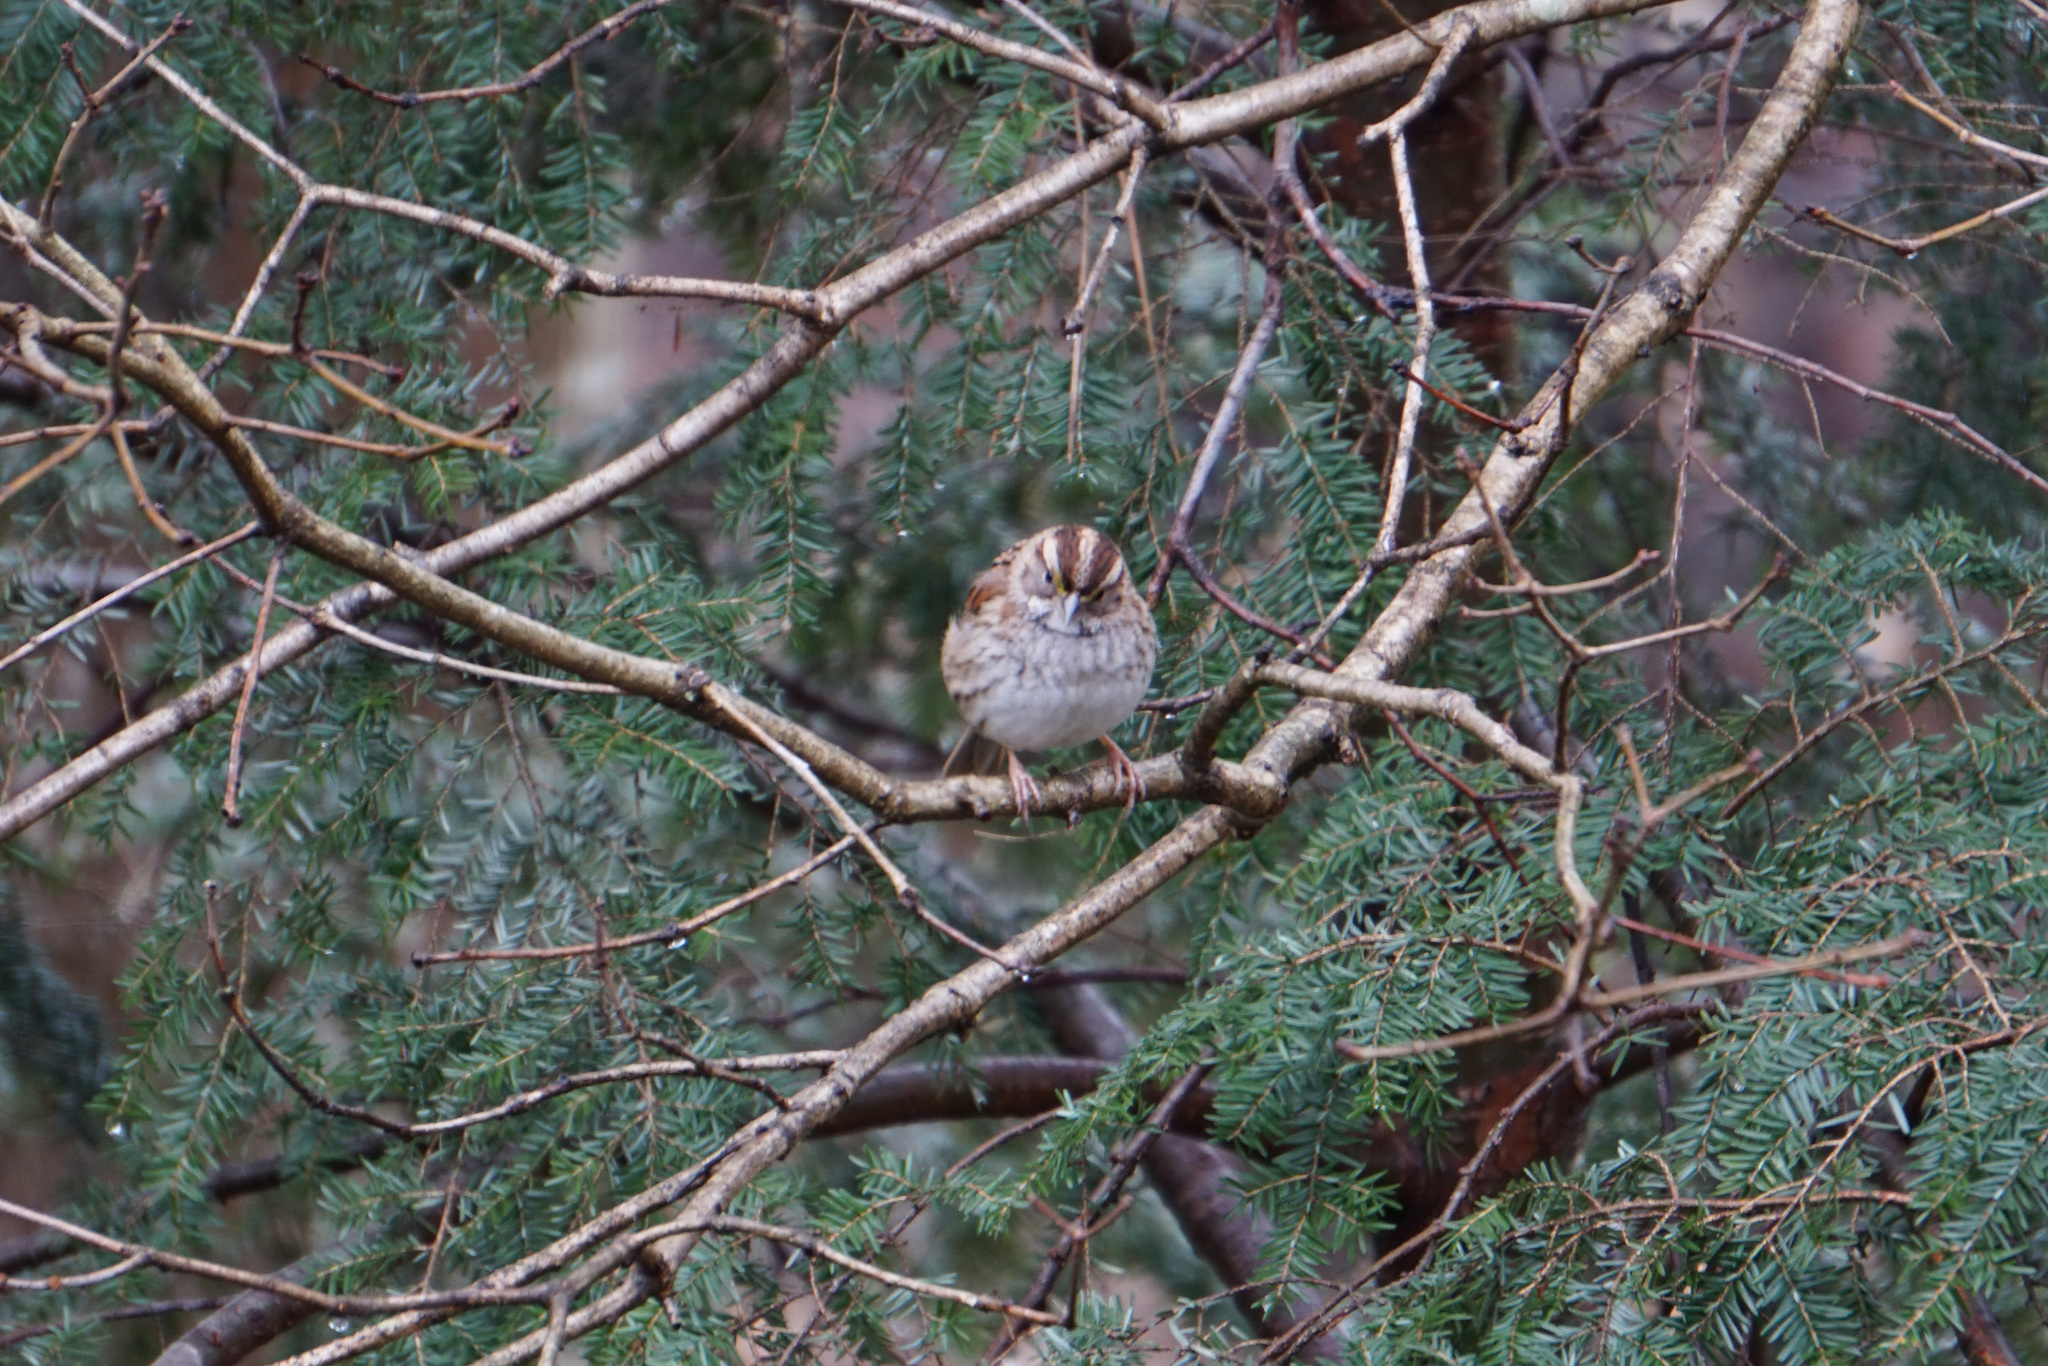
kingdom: Animalia
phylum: Chordata
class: Aves
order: Passeriformes
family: Passerellidae
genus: Zonotrichia
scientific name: Zonotrichia albicollis
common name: White-throated sparrow
